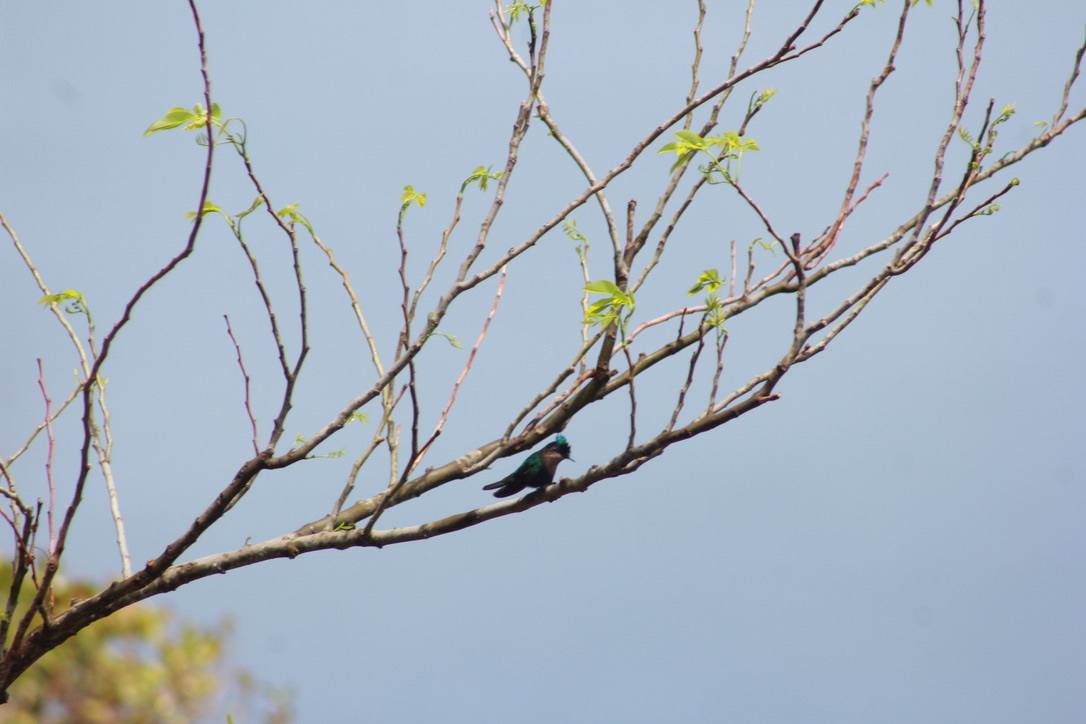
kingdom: Animalia
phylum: Chordata
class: Aves
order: Apodiformes
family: Trochilidae
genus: Orthorhyncus
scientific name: Orthorhyncus cristatus
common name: Antillean crested hummingbird
